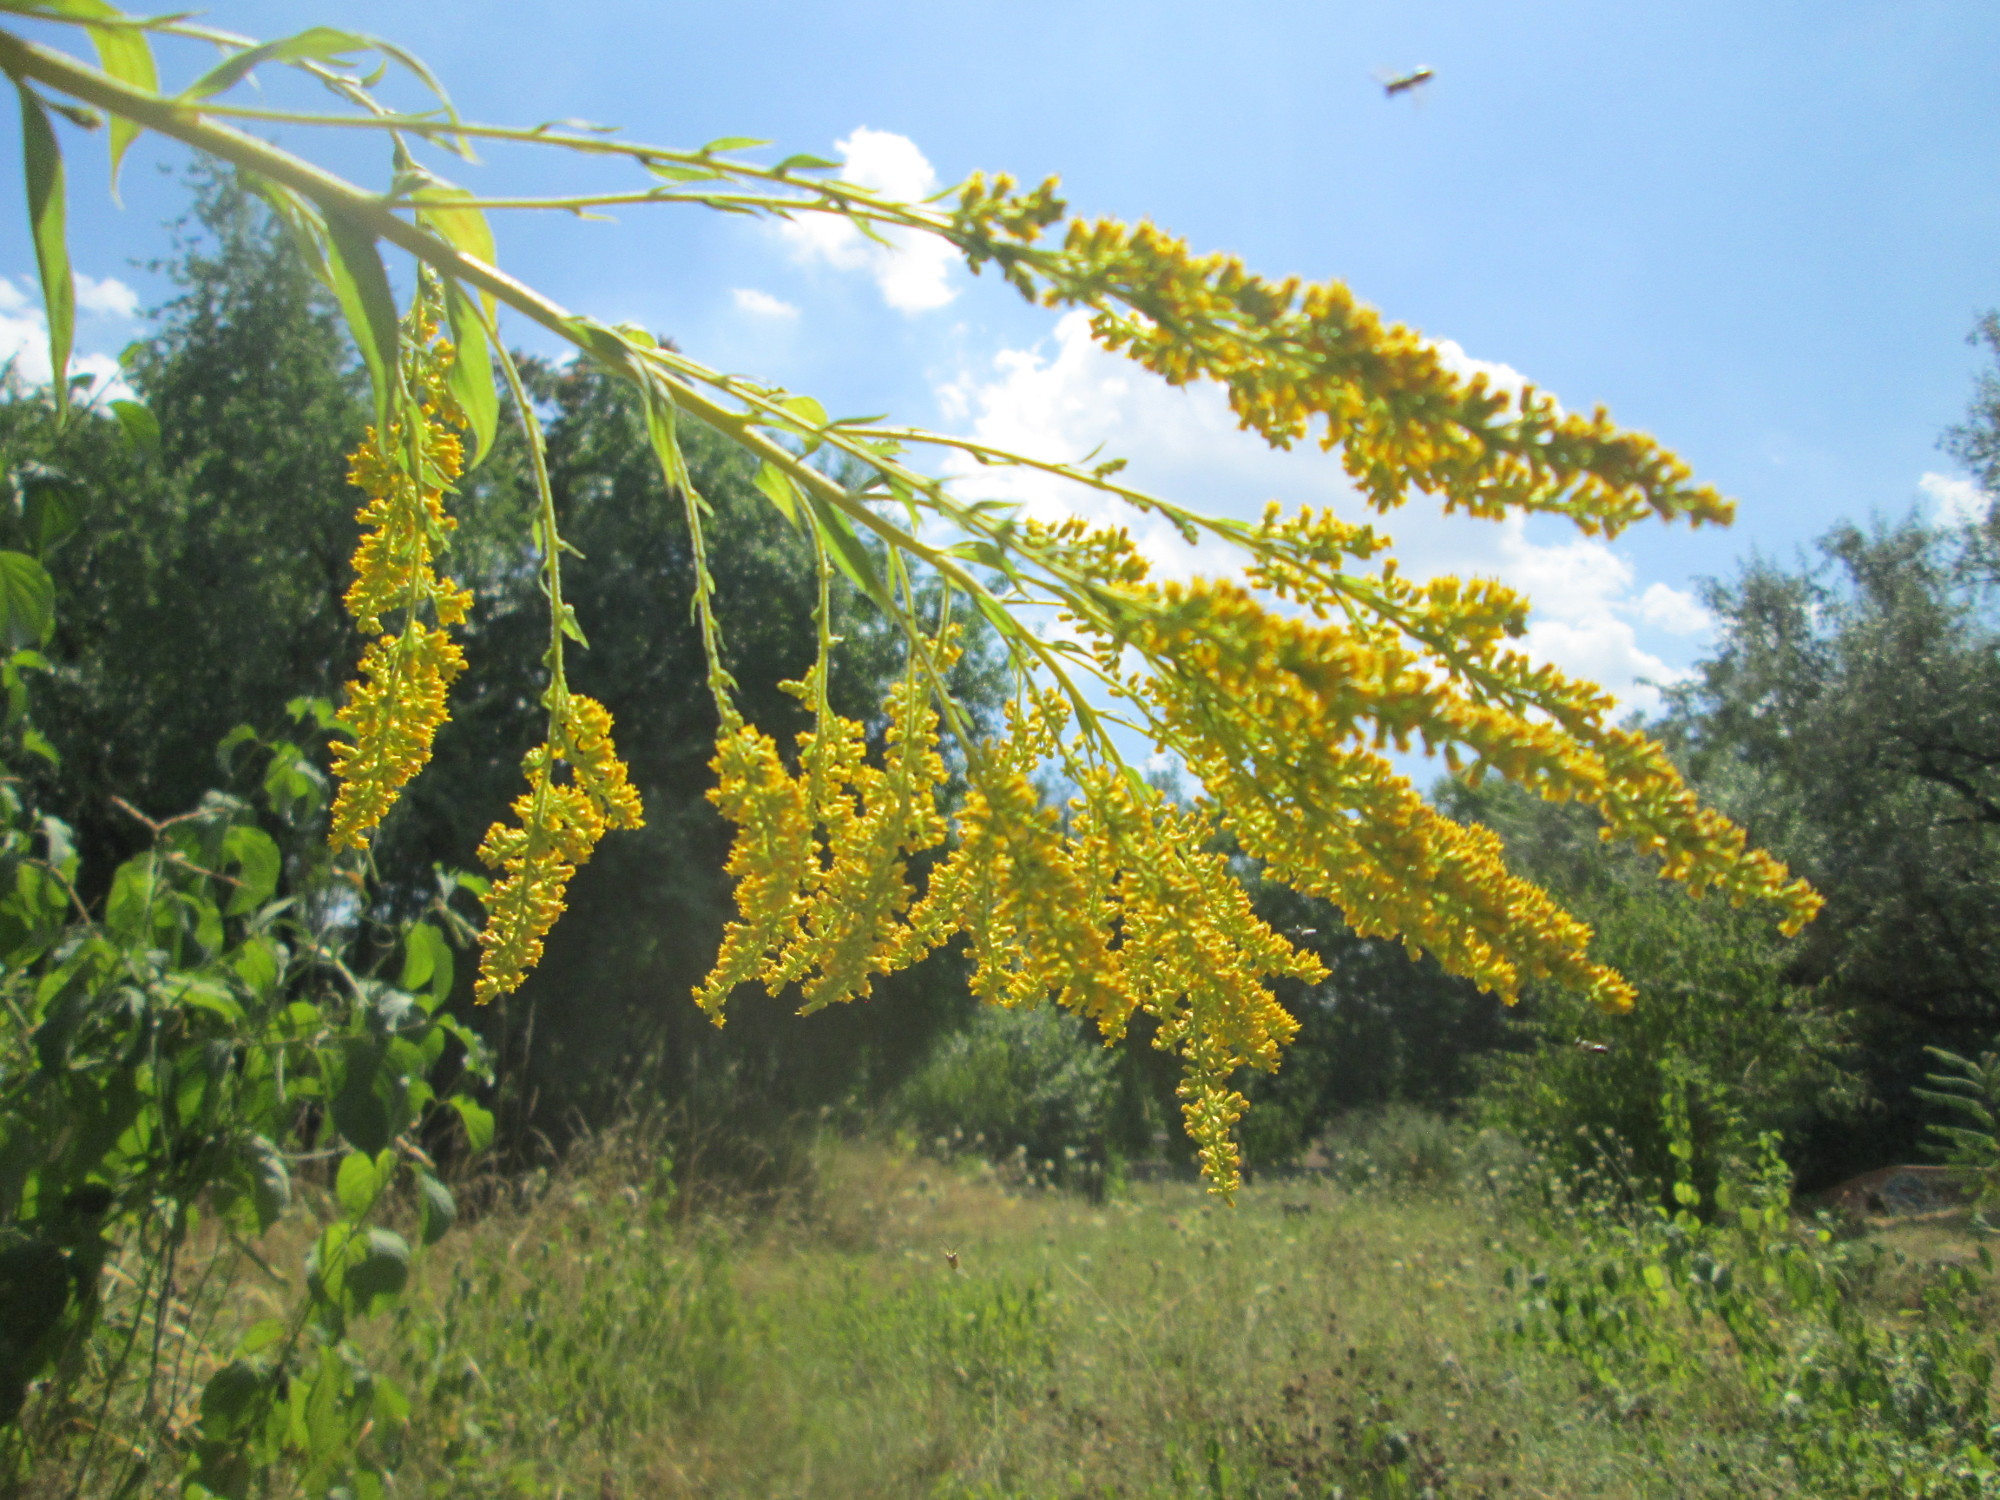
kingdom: Plantae
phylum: Tracheophyta
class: Magnoliopsida
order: Asterales
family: Asteraceae
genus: Solidago
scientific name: Solidago canadensis
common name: Canada goldenrod
